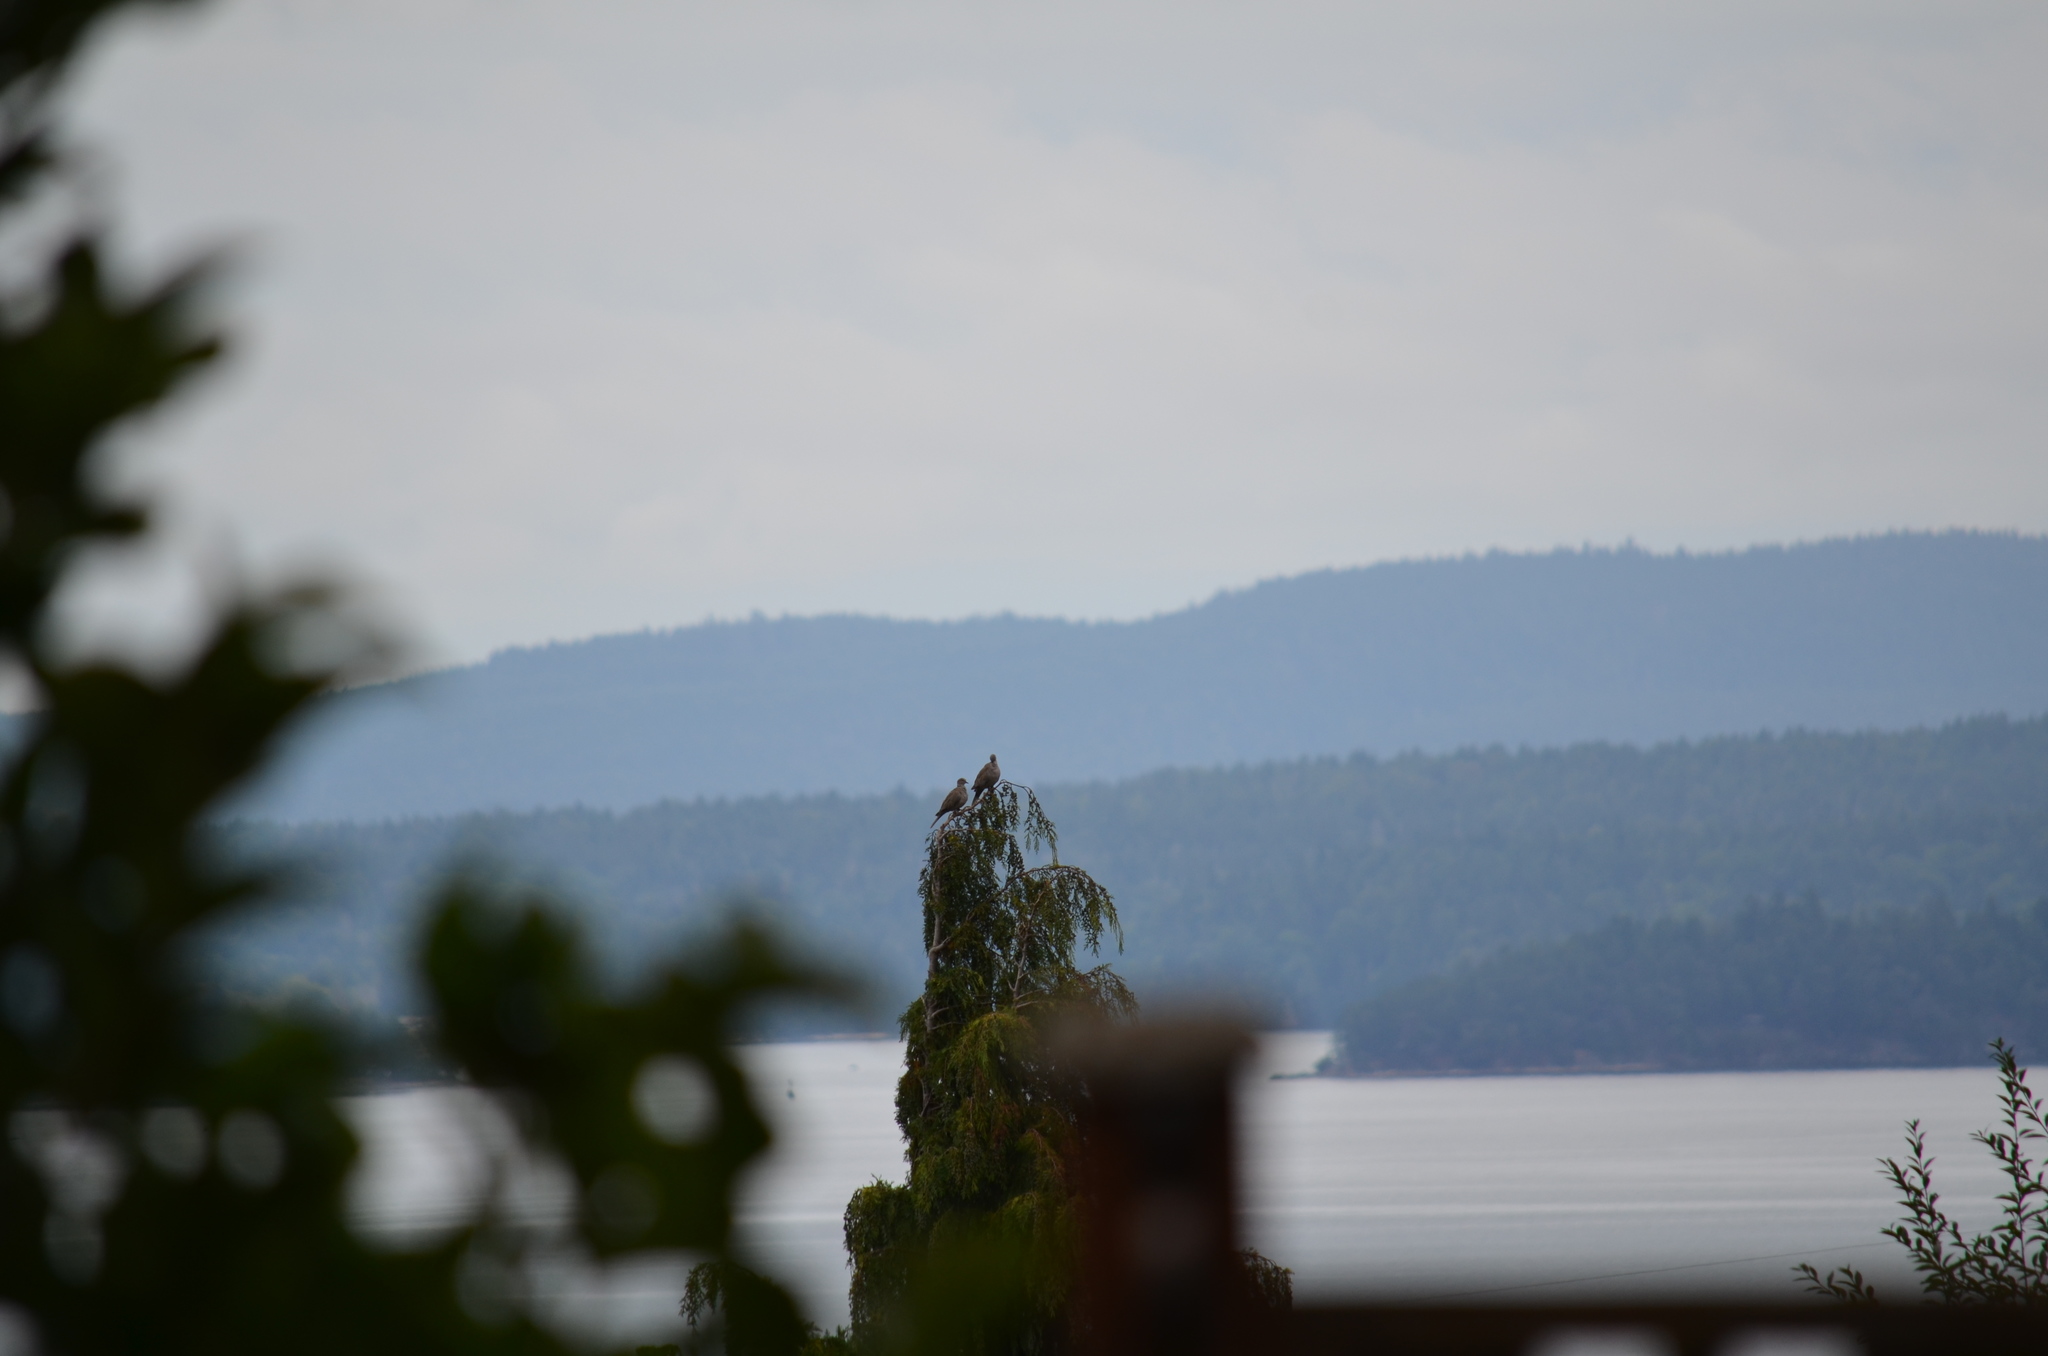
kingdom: Animalia
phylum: Chordata
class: Aves
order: Columbiformes
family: Columbidae
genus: Streptopelia
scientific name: Streptopelia decaocto
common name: Eurasian collared dove
